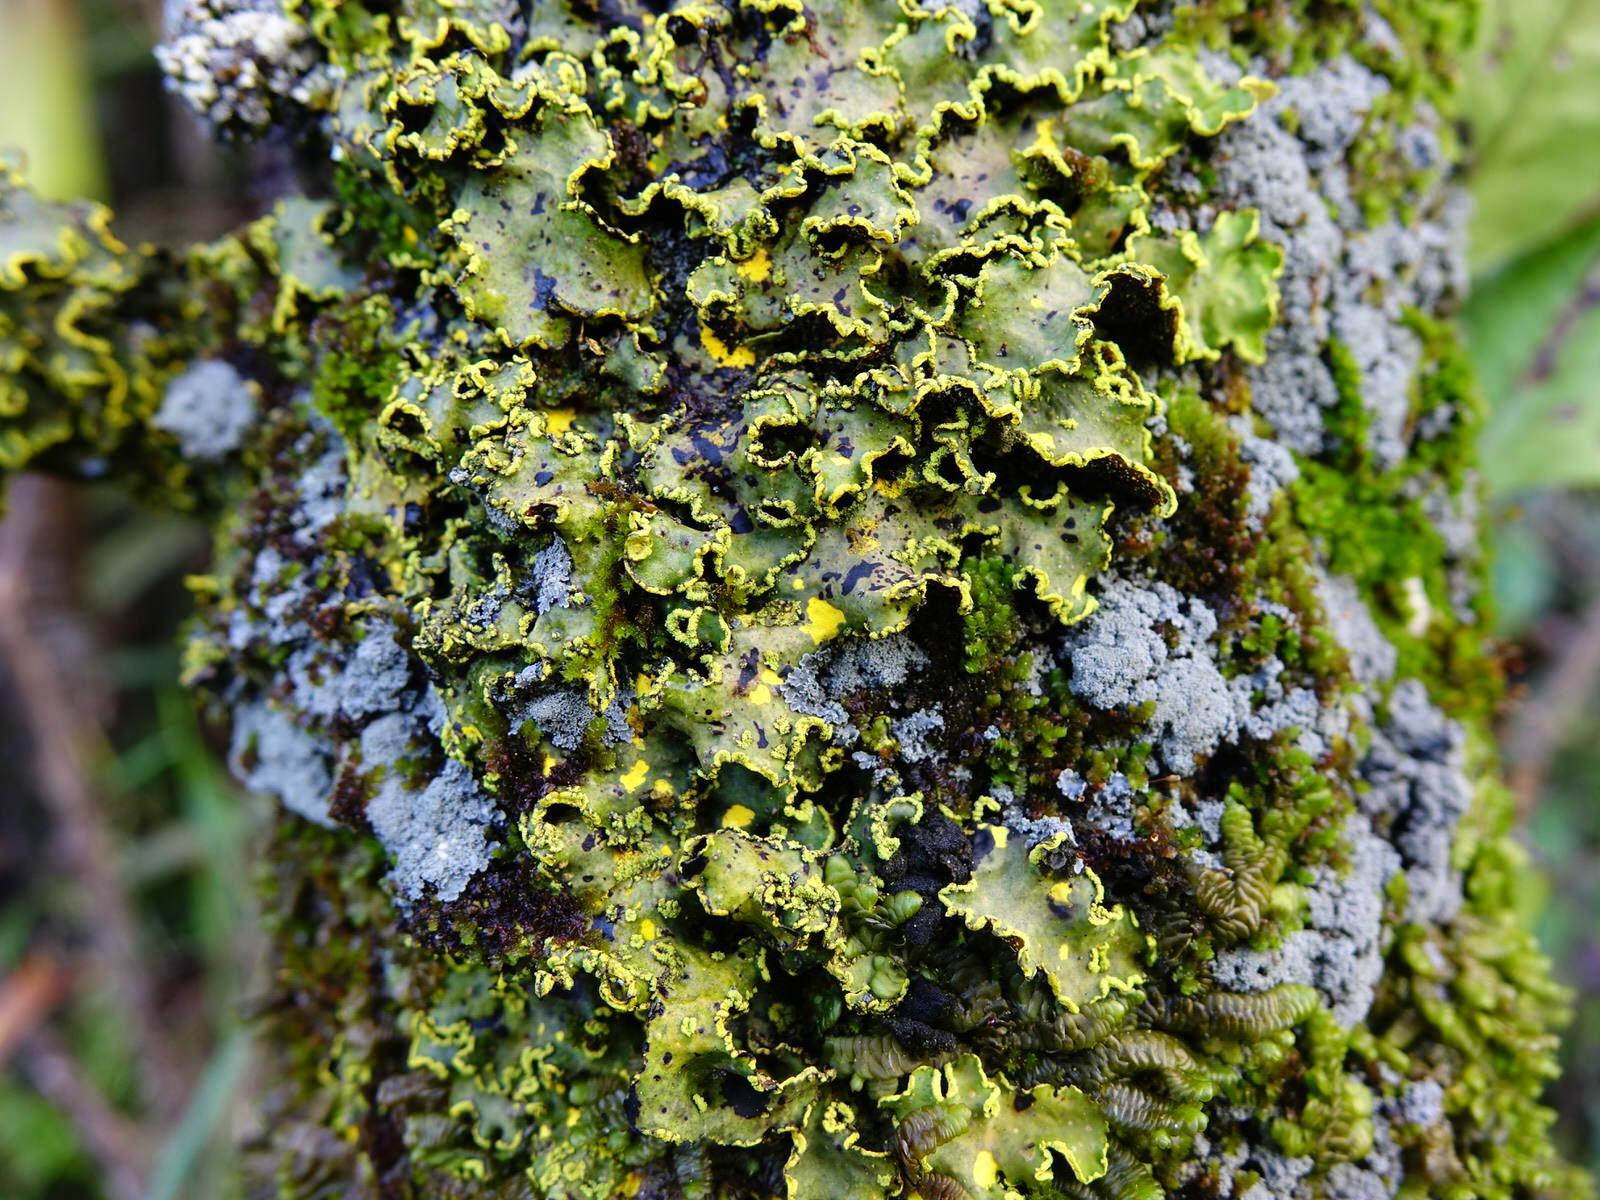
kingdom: Fungi
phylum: Ascomycota
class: Lecanoromycetes
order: Peltigerales
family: Lobariaceae
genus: Pseudocyphellaria
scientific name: Pseudocyphellaria aurata
